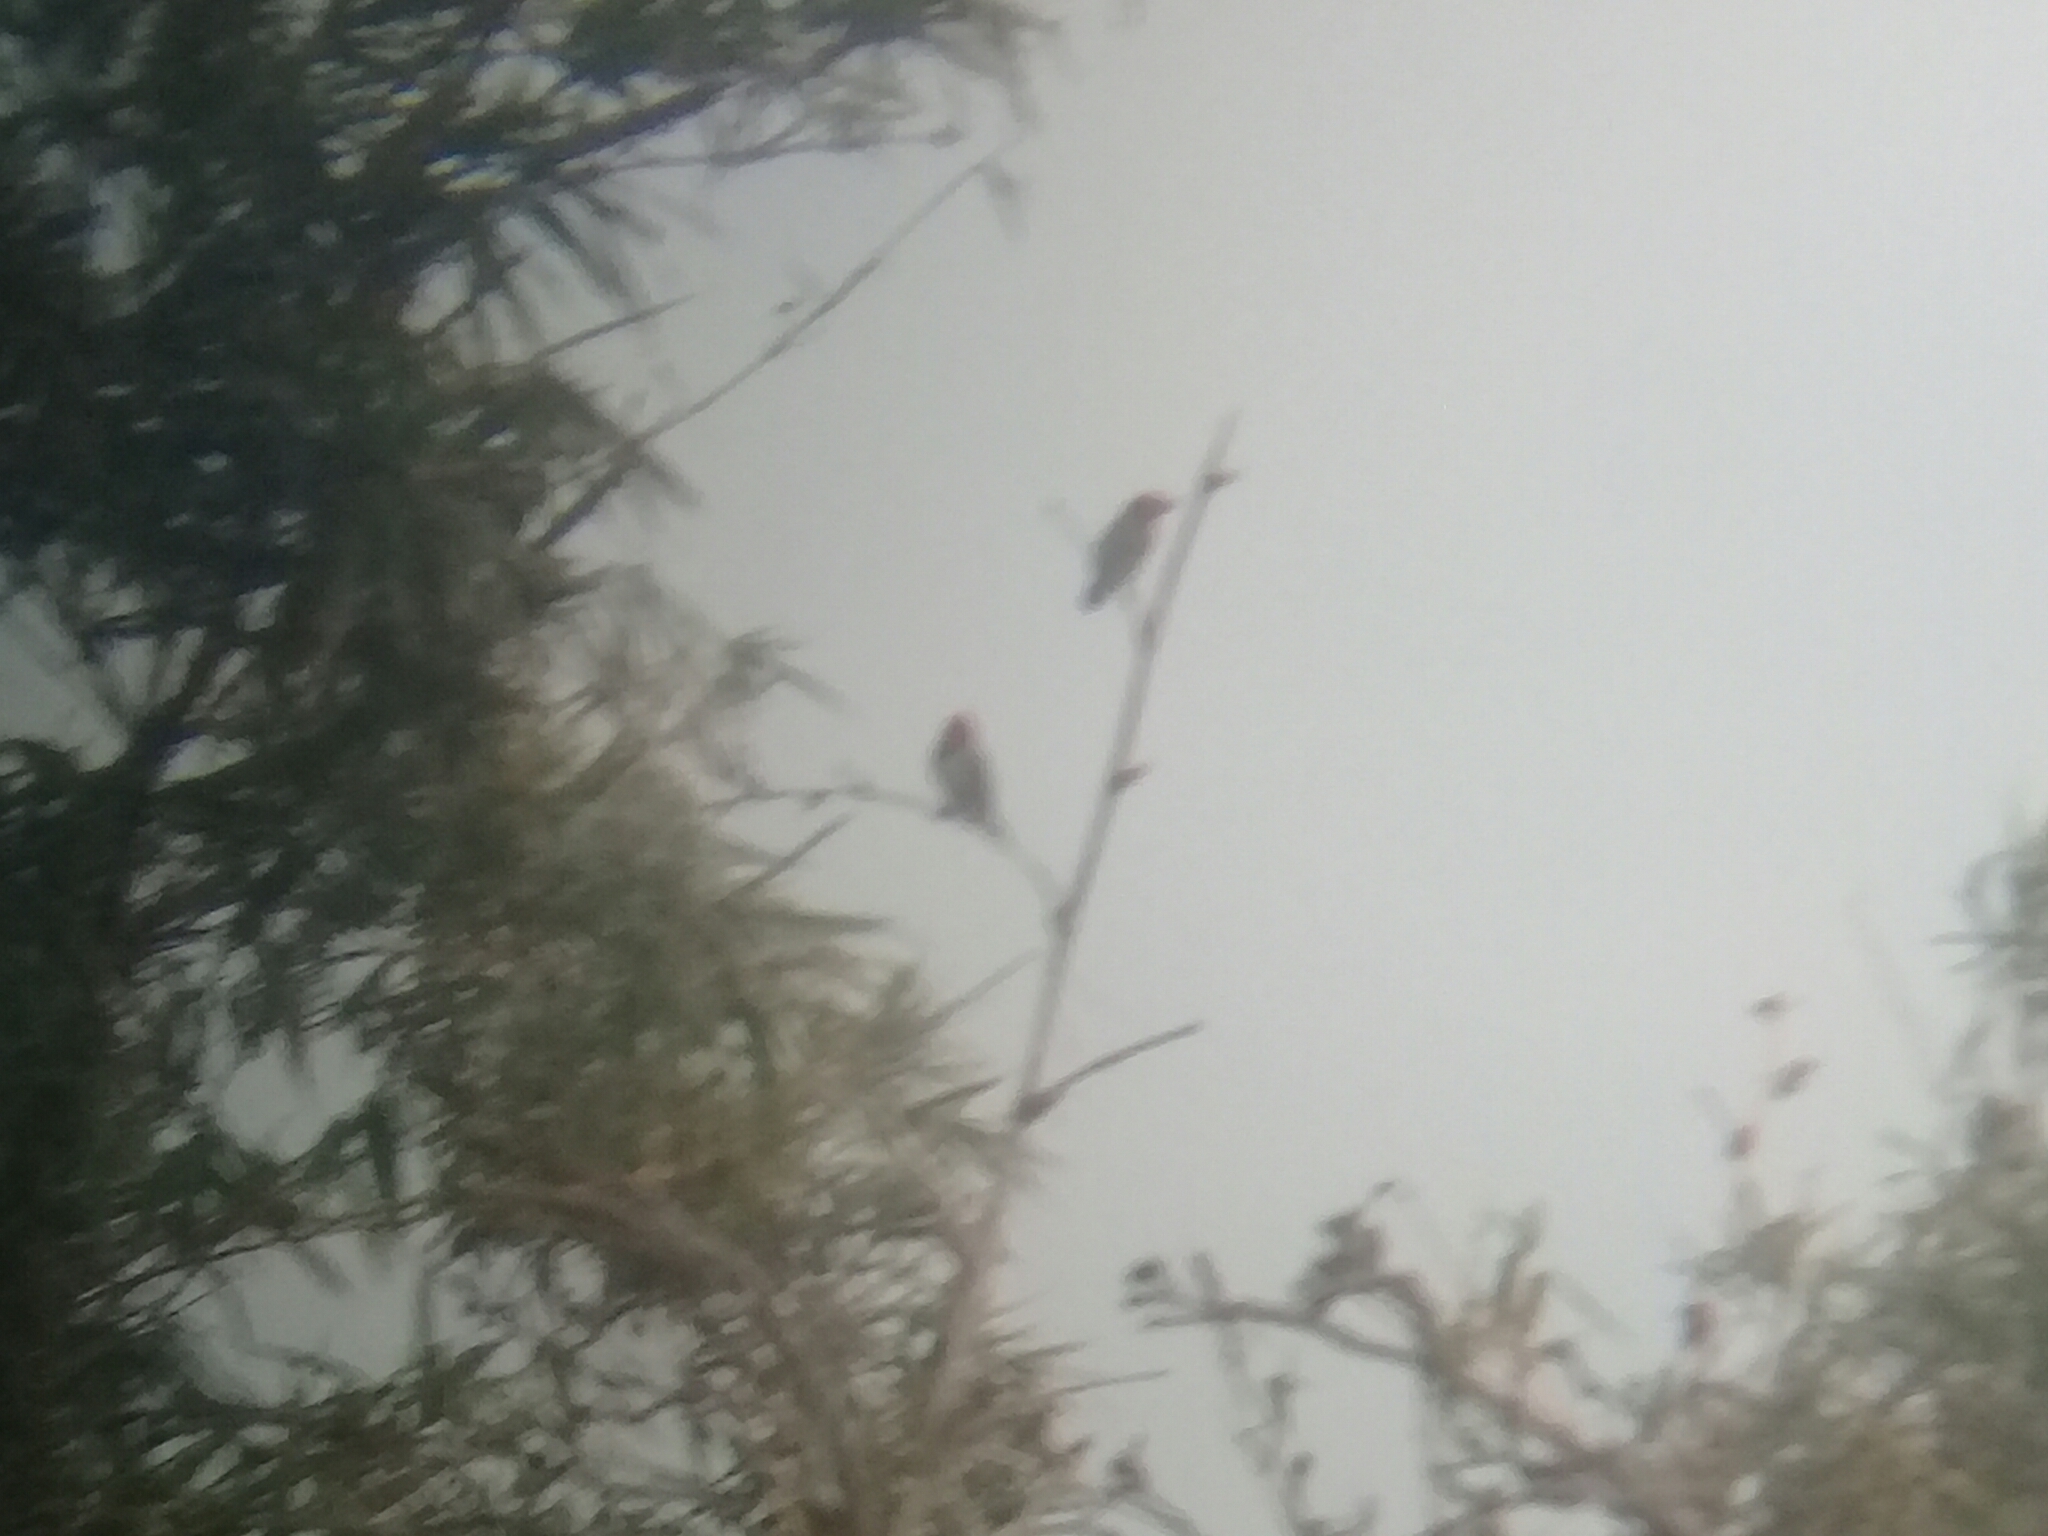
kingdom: Animalia
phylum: Chordata
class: Aves
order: Piciformes
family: Lybiidae
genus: Lybius
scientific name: Lybius torquatus
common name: Black-collared barbet
